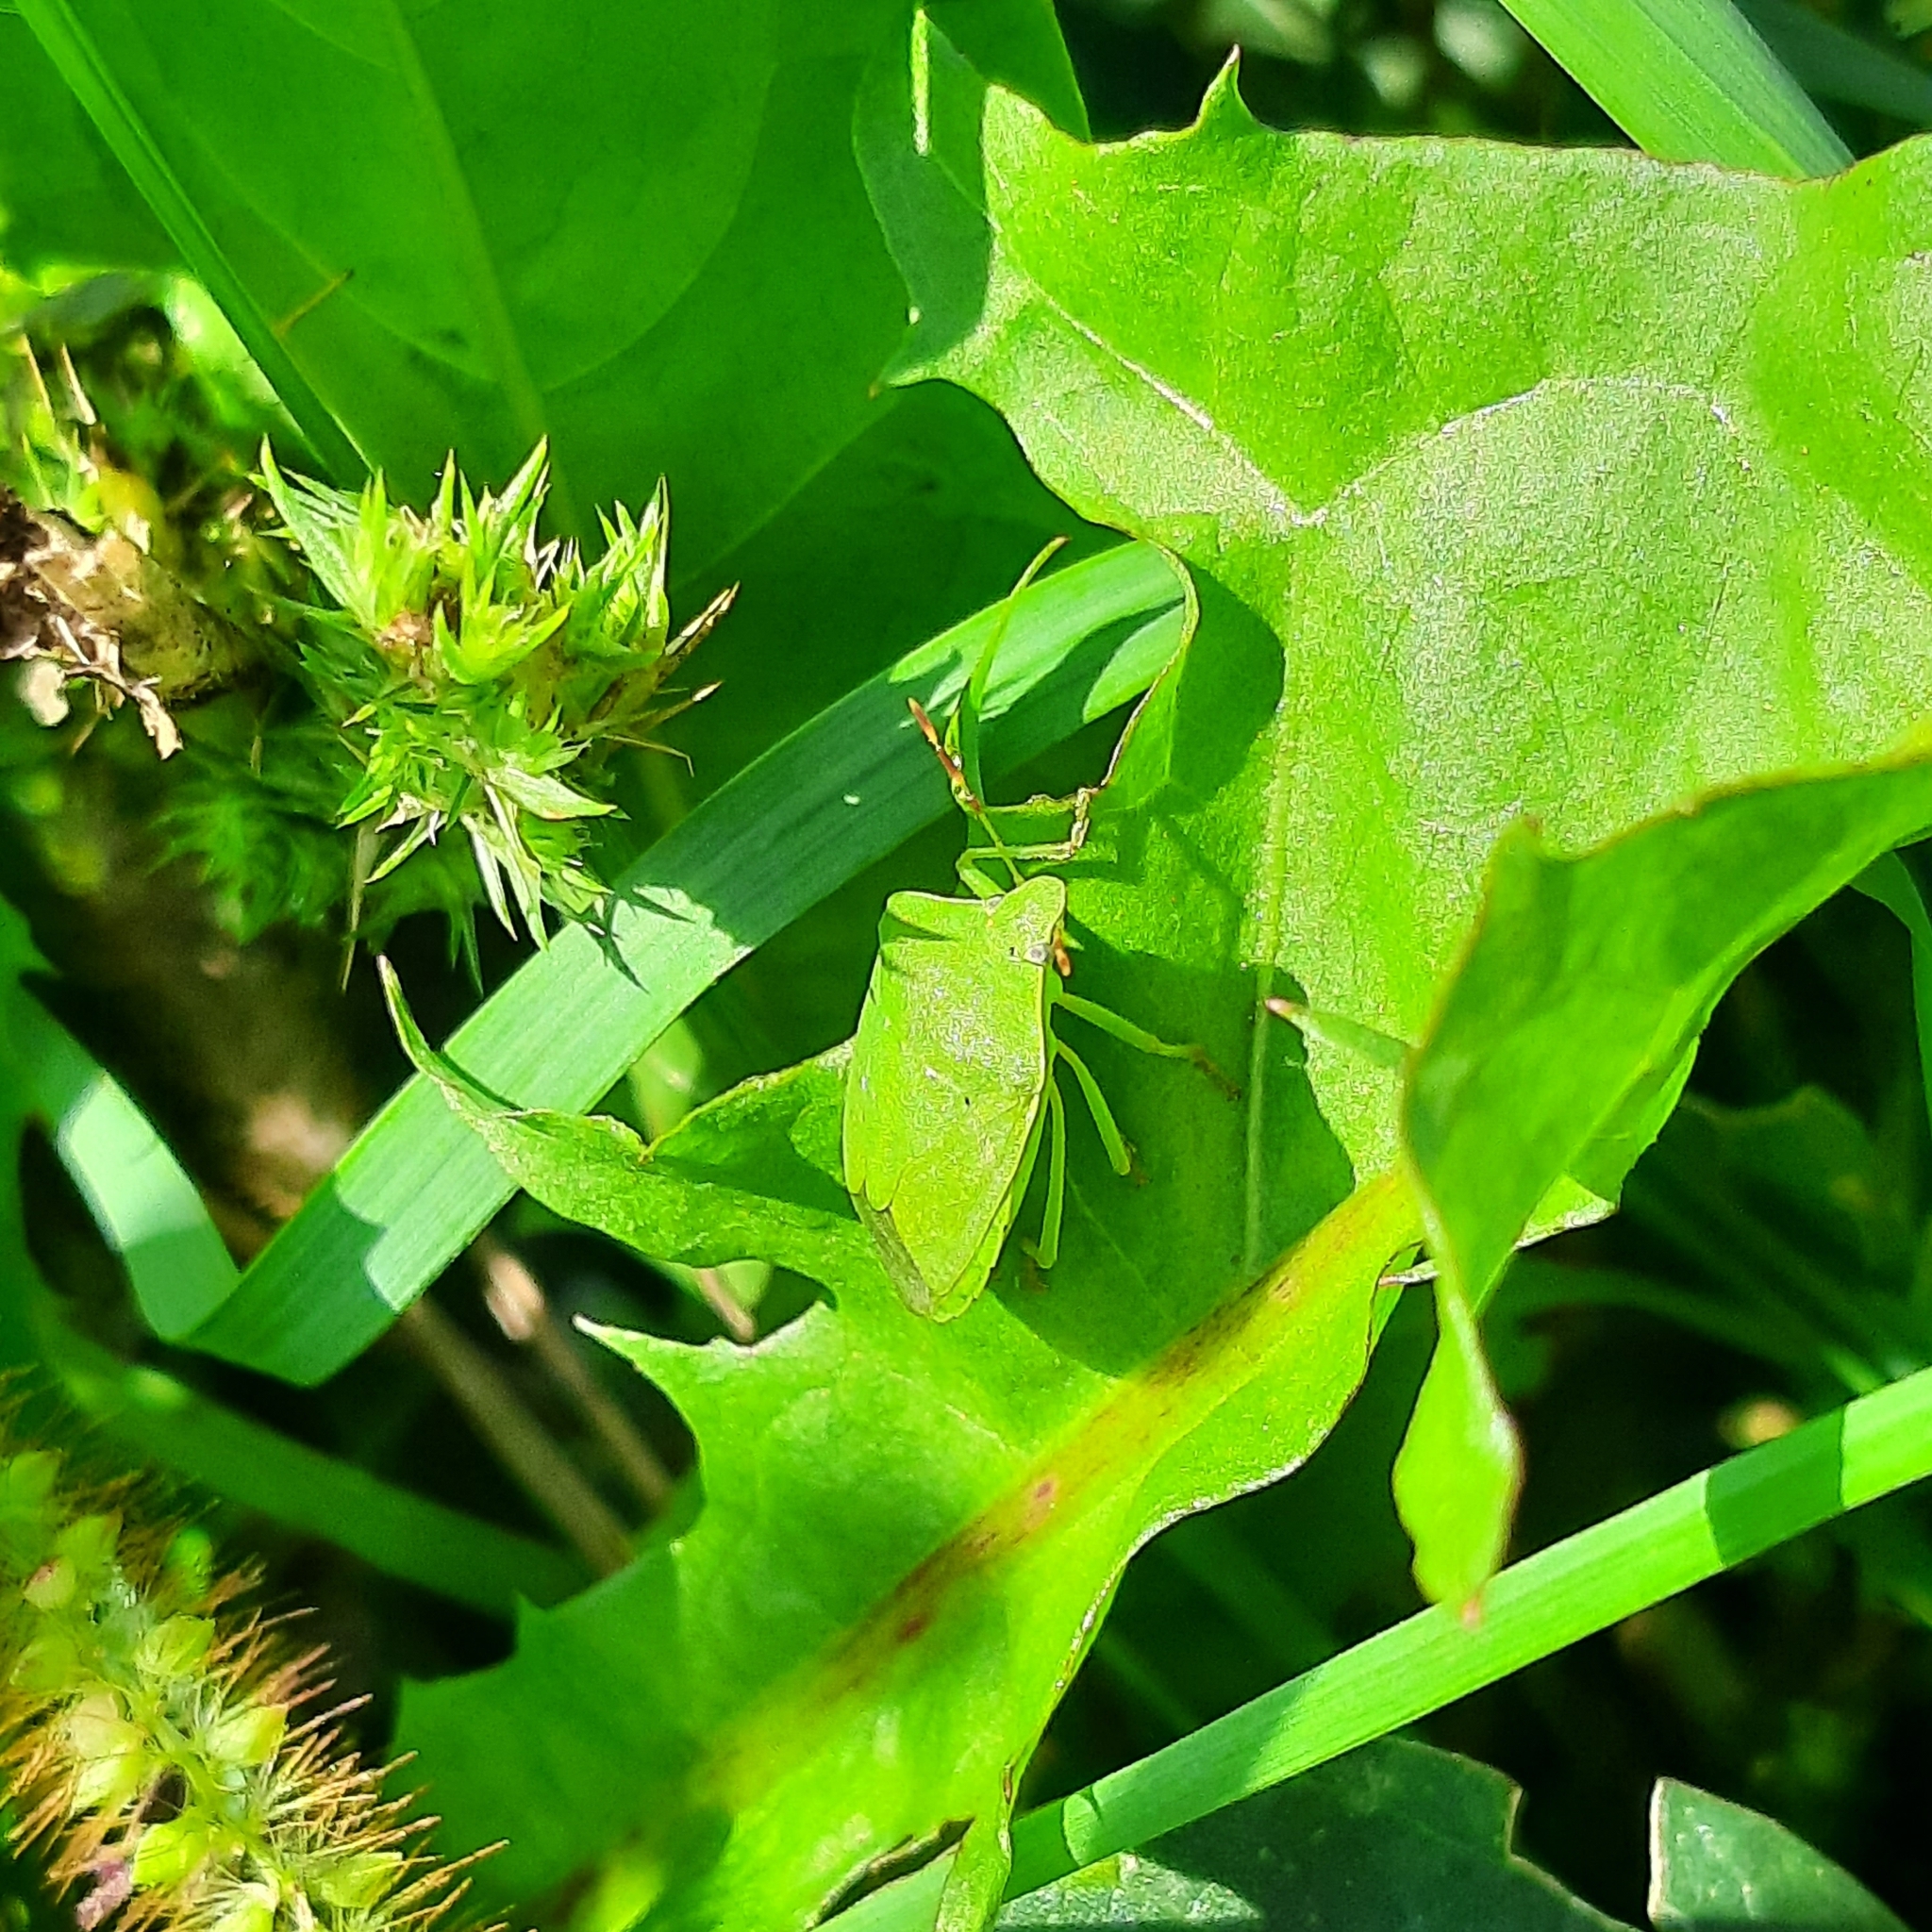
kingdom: Animalia
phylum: Arthropoda
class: Insecta
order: Hemiptera
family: Pentatomidae
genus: Nezara
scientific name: Nezara viridula
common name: Southern green stink bug
